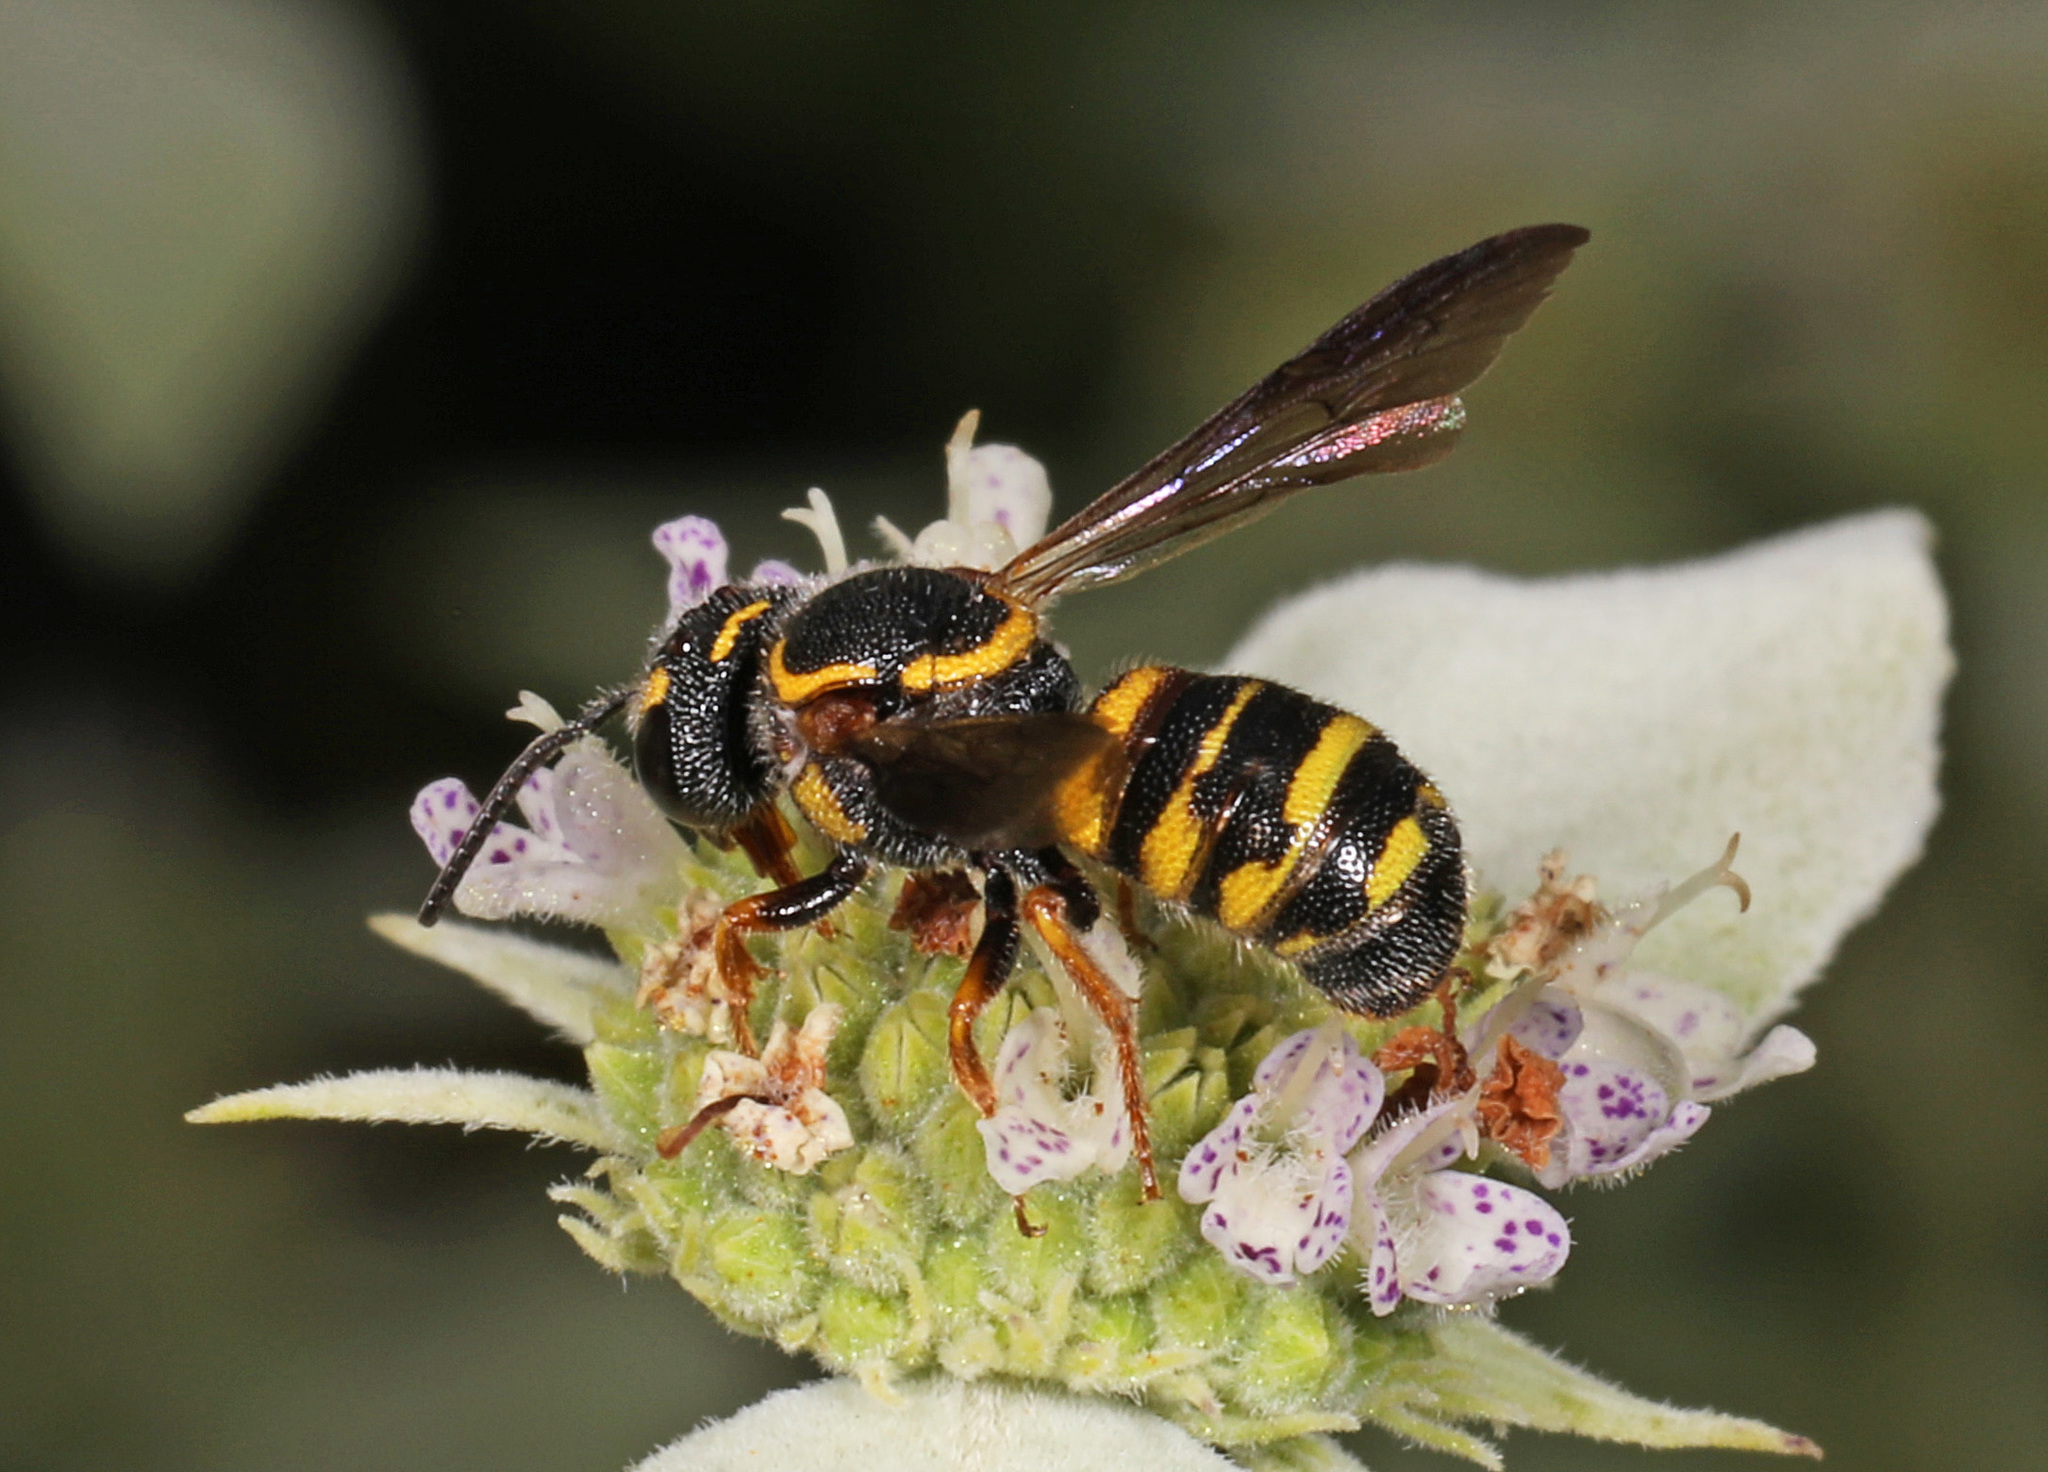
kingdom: Animalia
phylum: Arthropoda
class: Insecta
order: Hymenoptera
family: Megachilidae
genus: Stelis
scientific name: Stelis louisae
